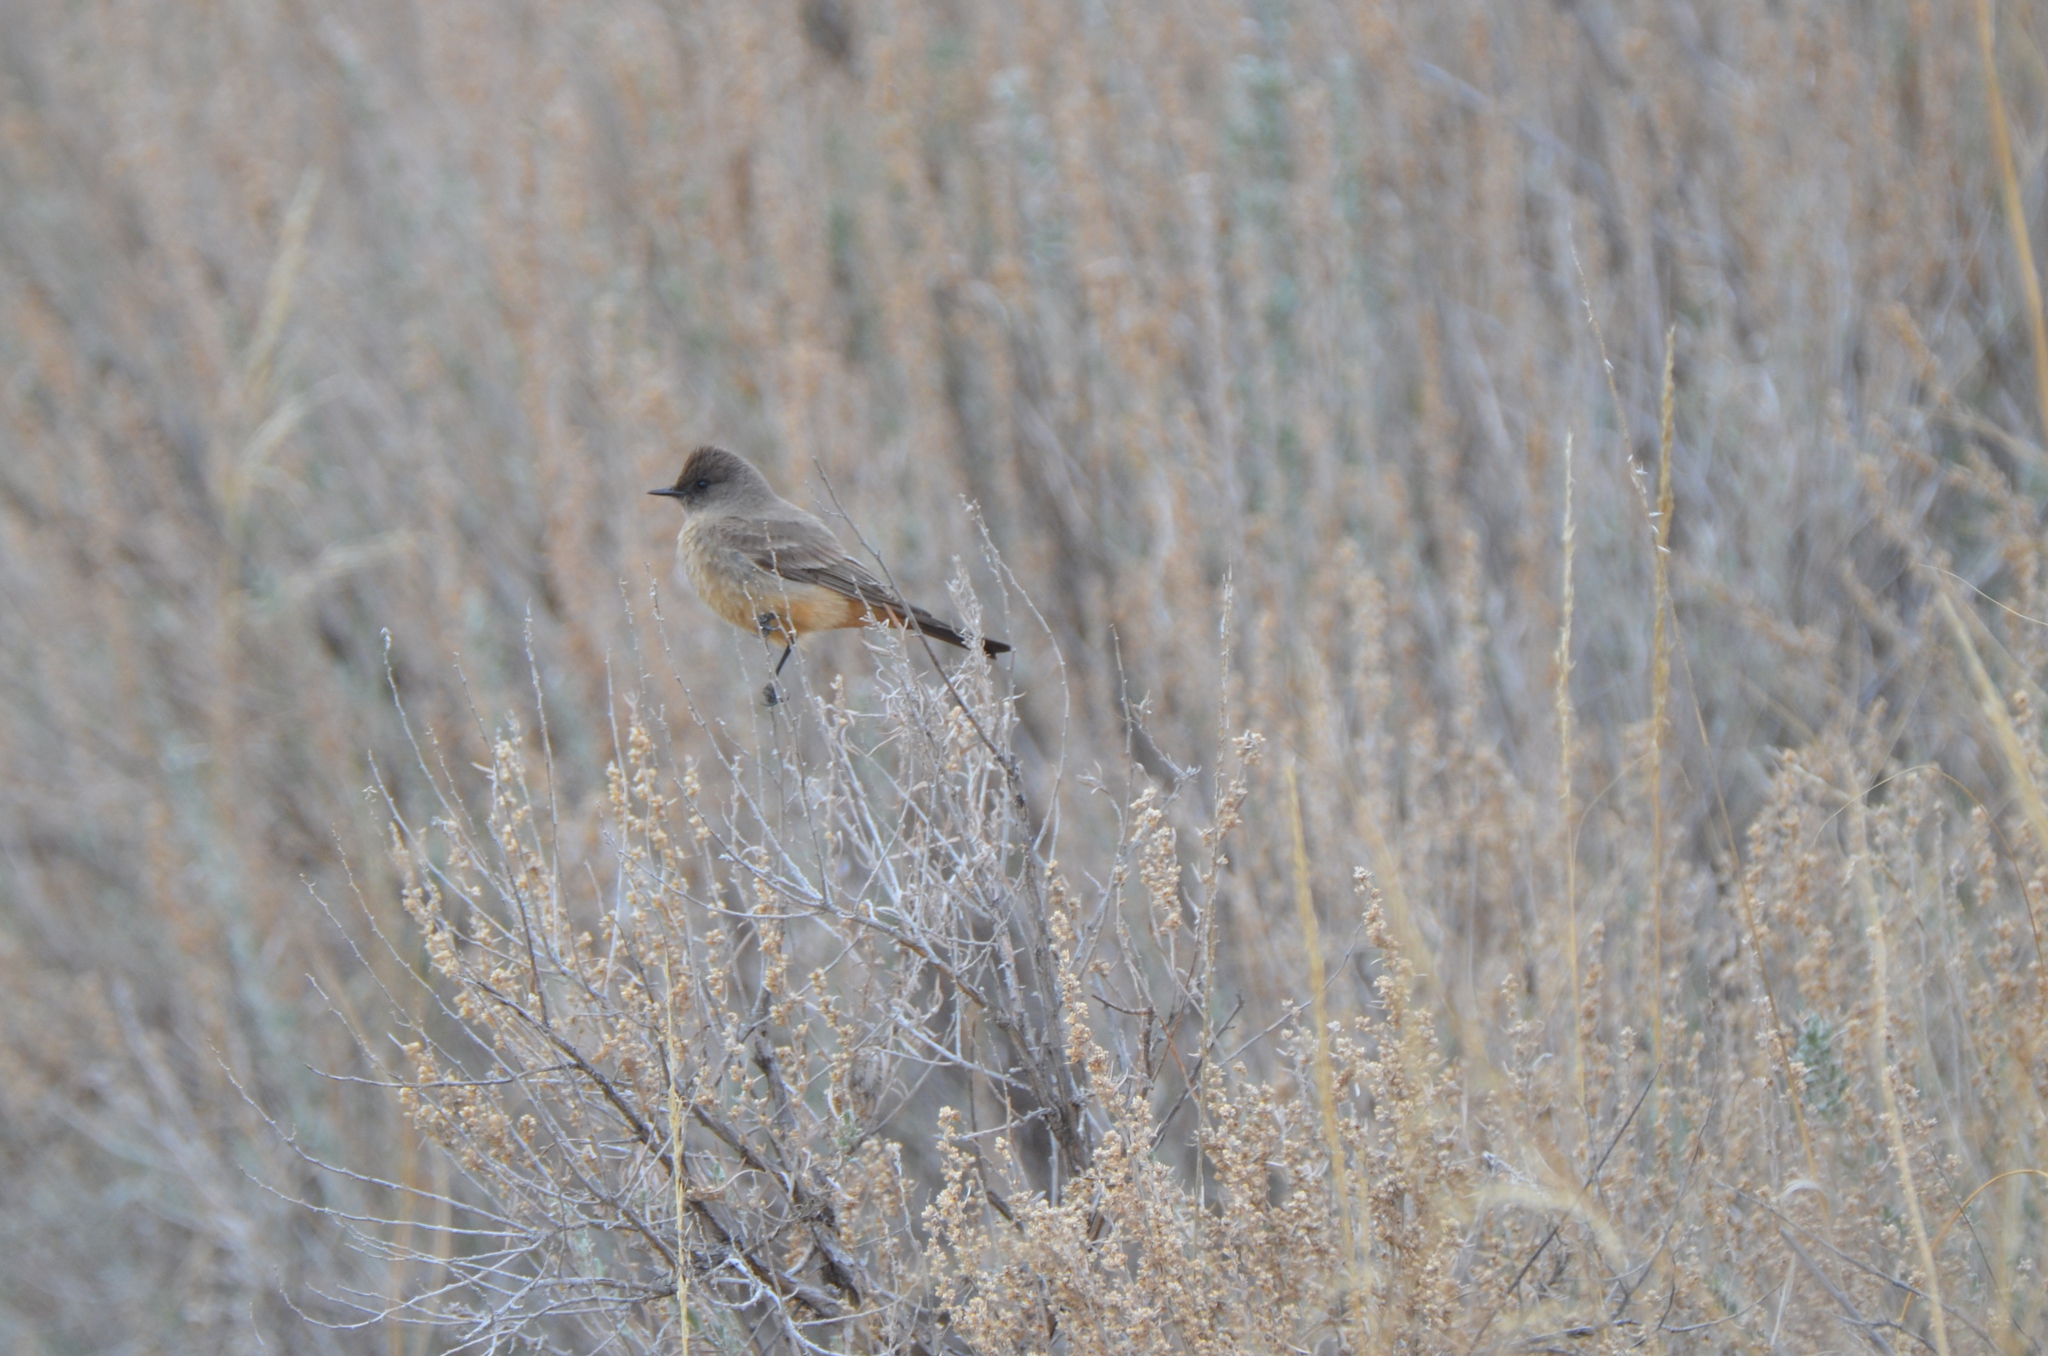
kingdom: Animalia
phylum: Chordata
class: Aves
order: Passeriformes
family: Tyrannidae
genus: Sayornis
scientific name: Sayornis saya
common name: Say's phoebe
